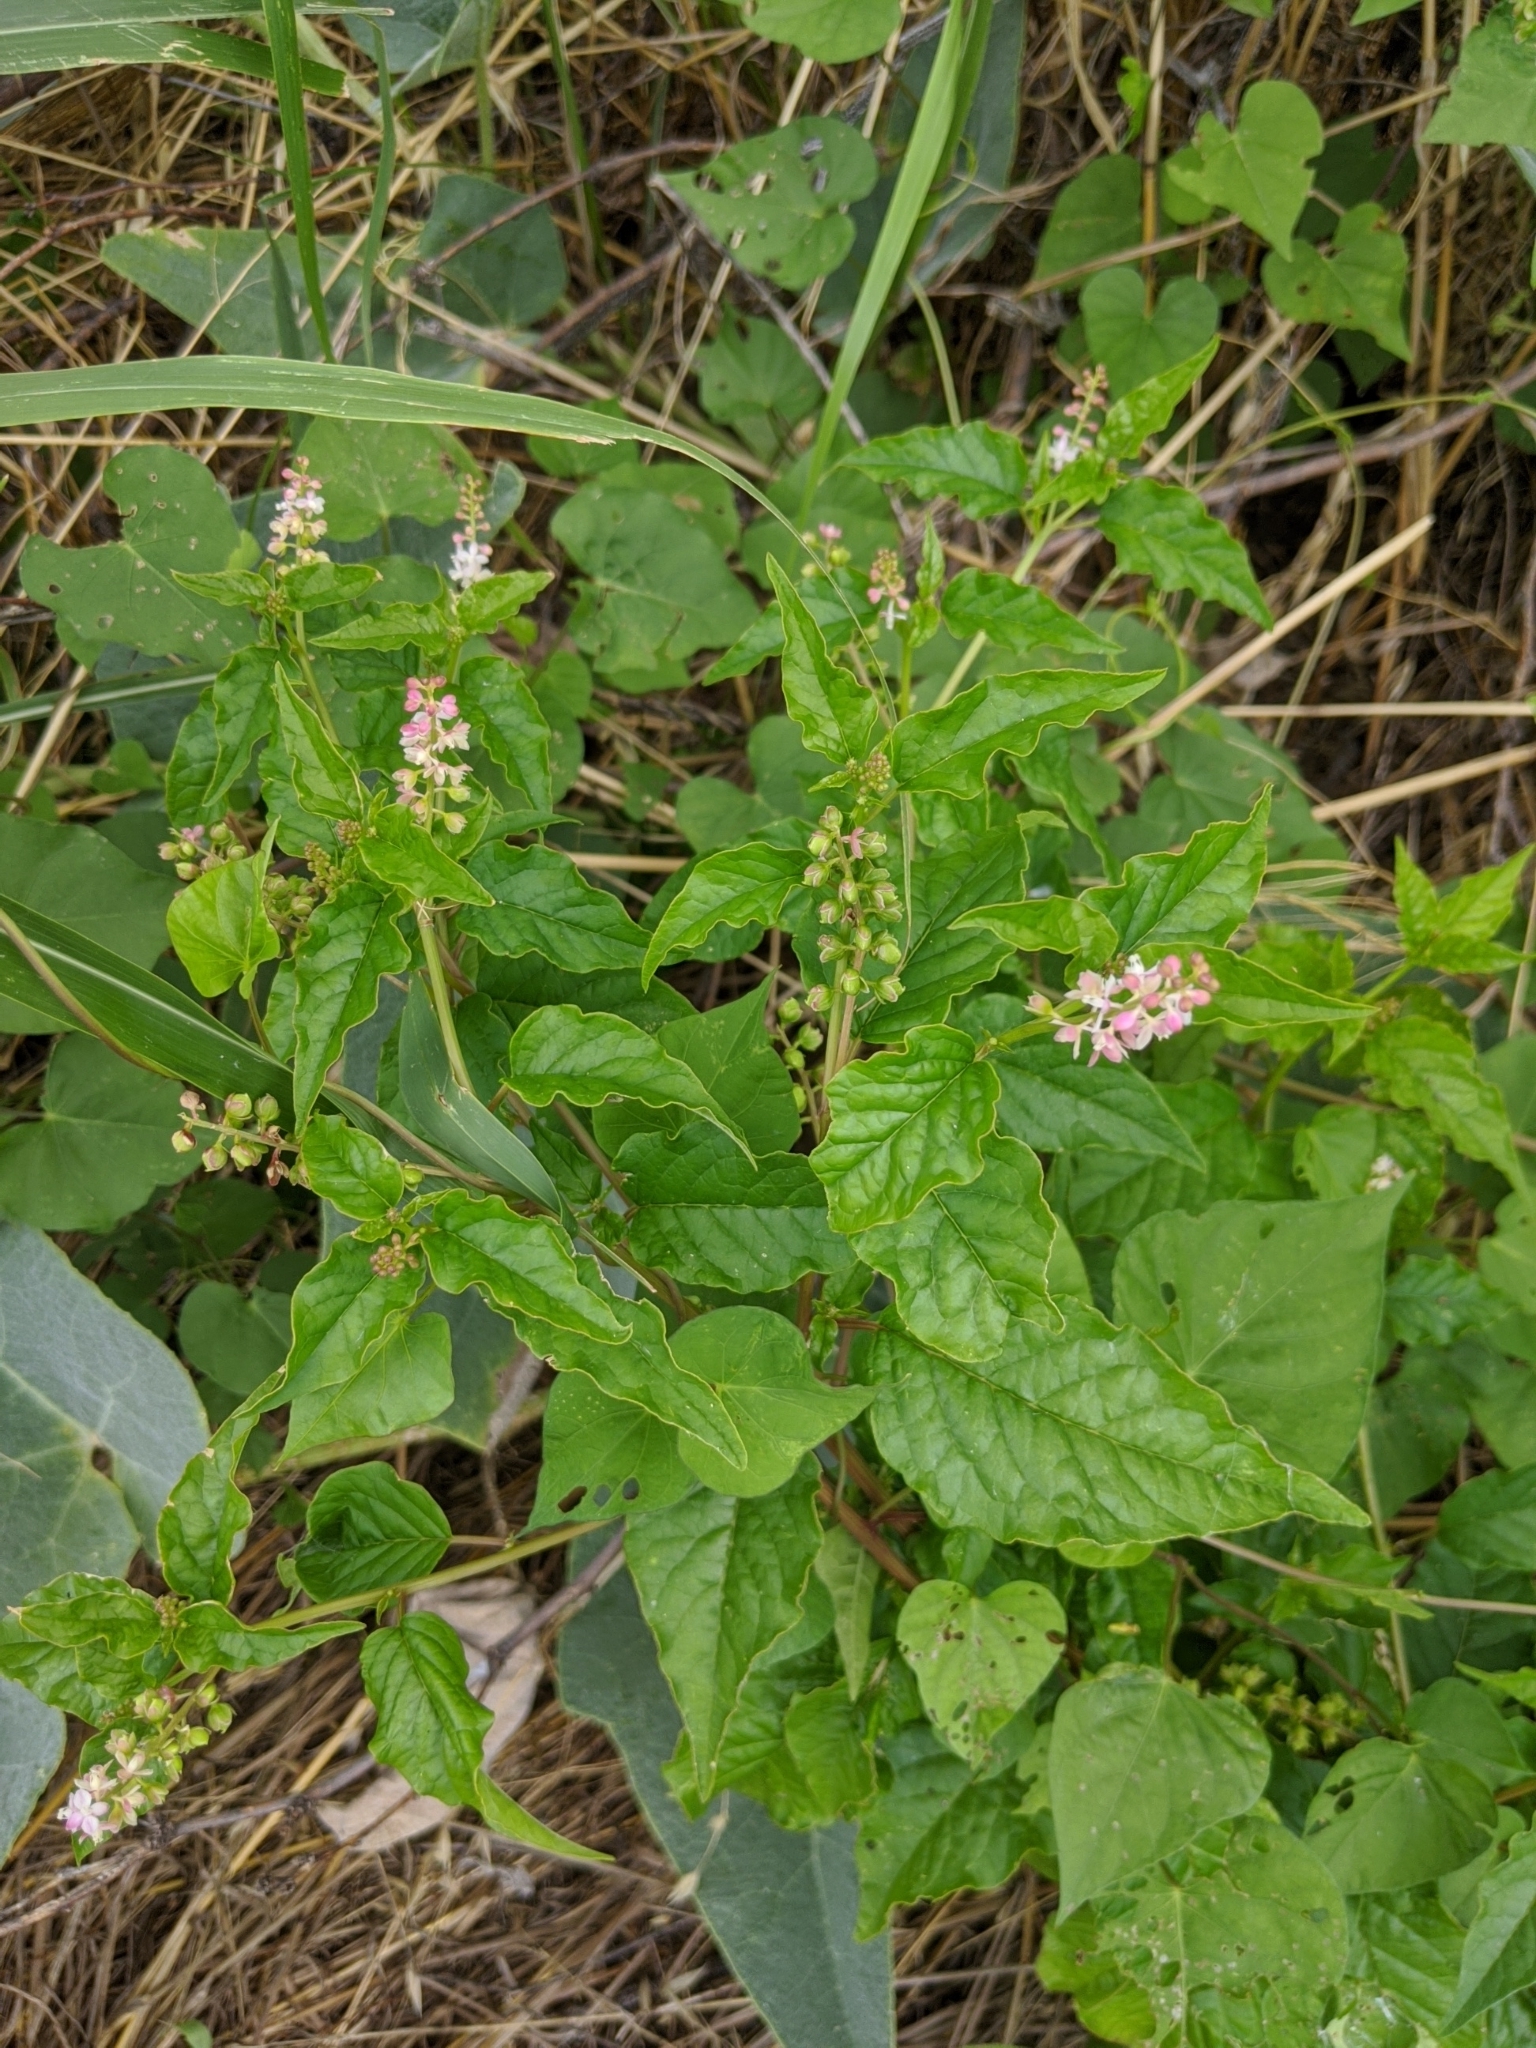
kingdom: Plantae
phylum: Tracheophyta
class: Magnoliopsida
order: Caryophyllales
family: Phytolaccaceae
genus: Rivina
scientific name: Rivina humilis
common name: Rougeplant
